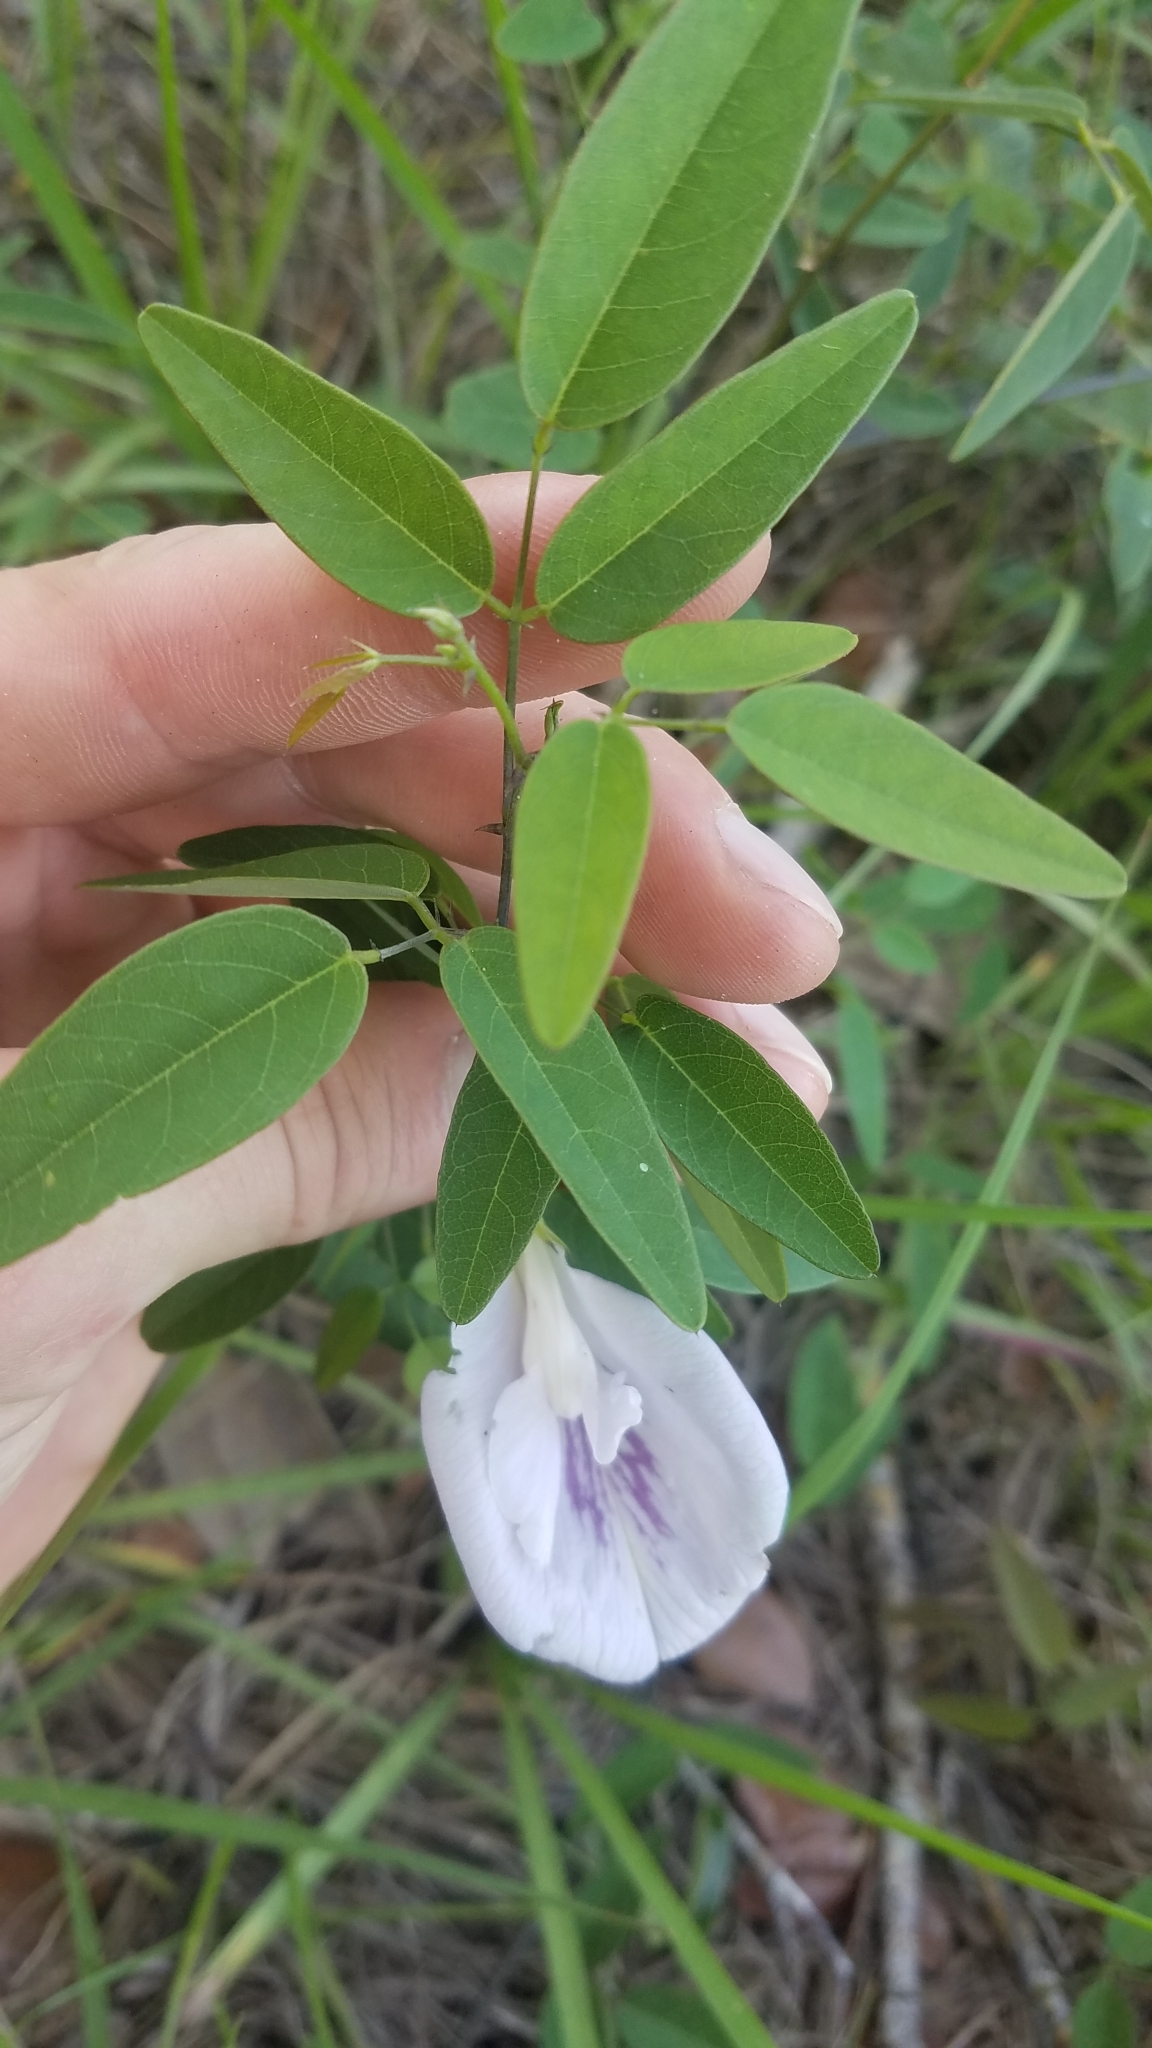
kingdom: Plantae
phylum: Tracheophyta
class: Magnoliopsida
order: Fabales
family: Fabaceae
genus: Clitoria
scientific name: Clitoria mariana
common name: Butterfly-pea
